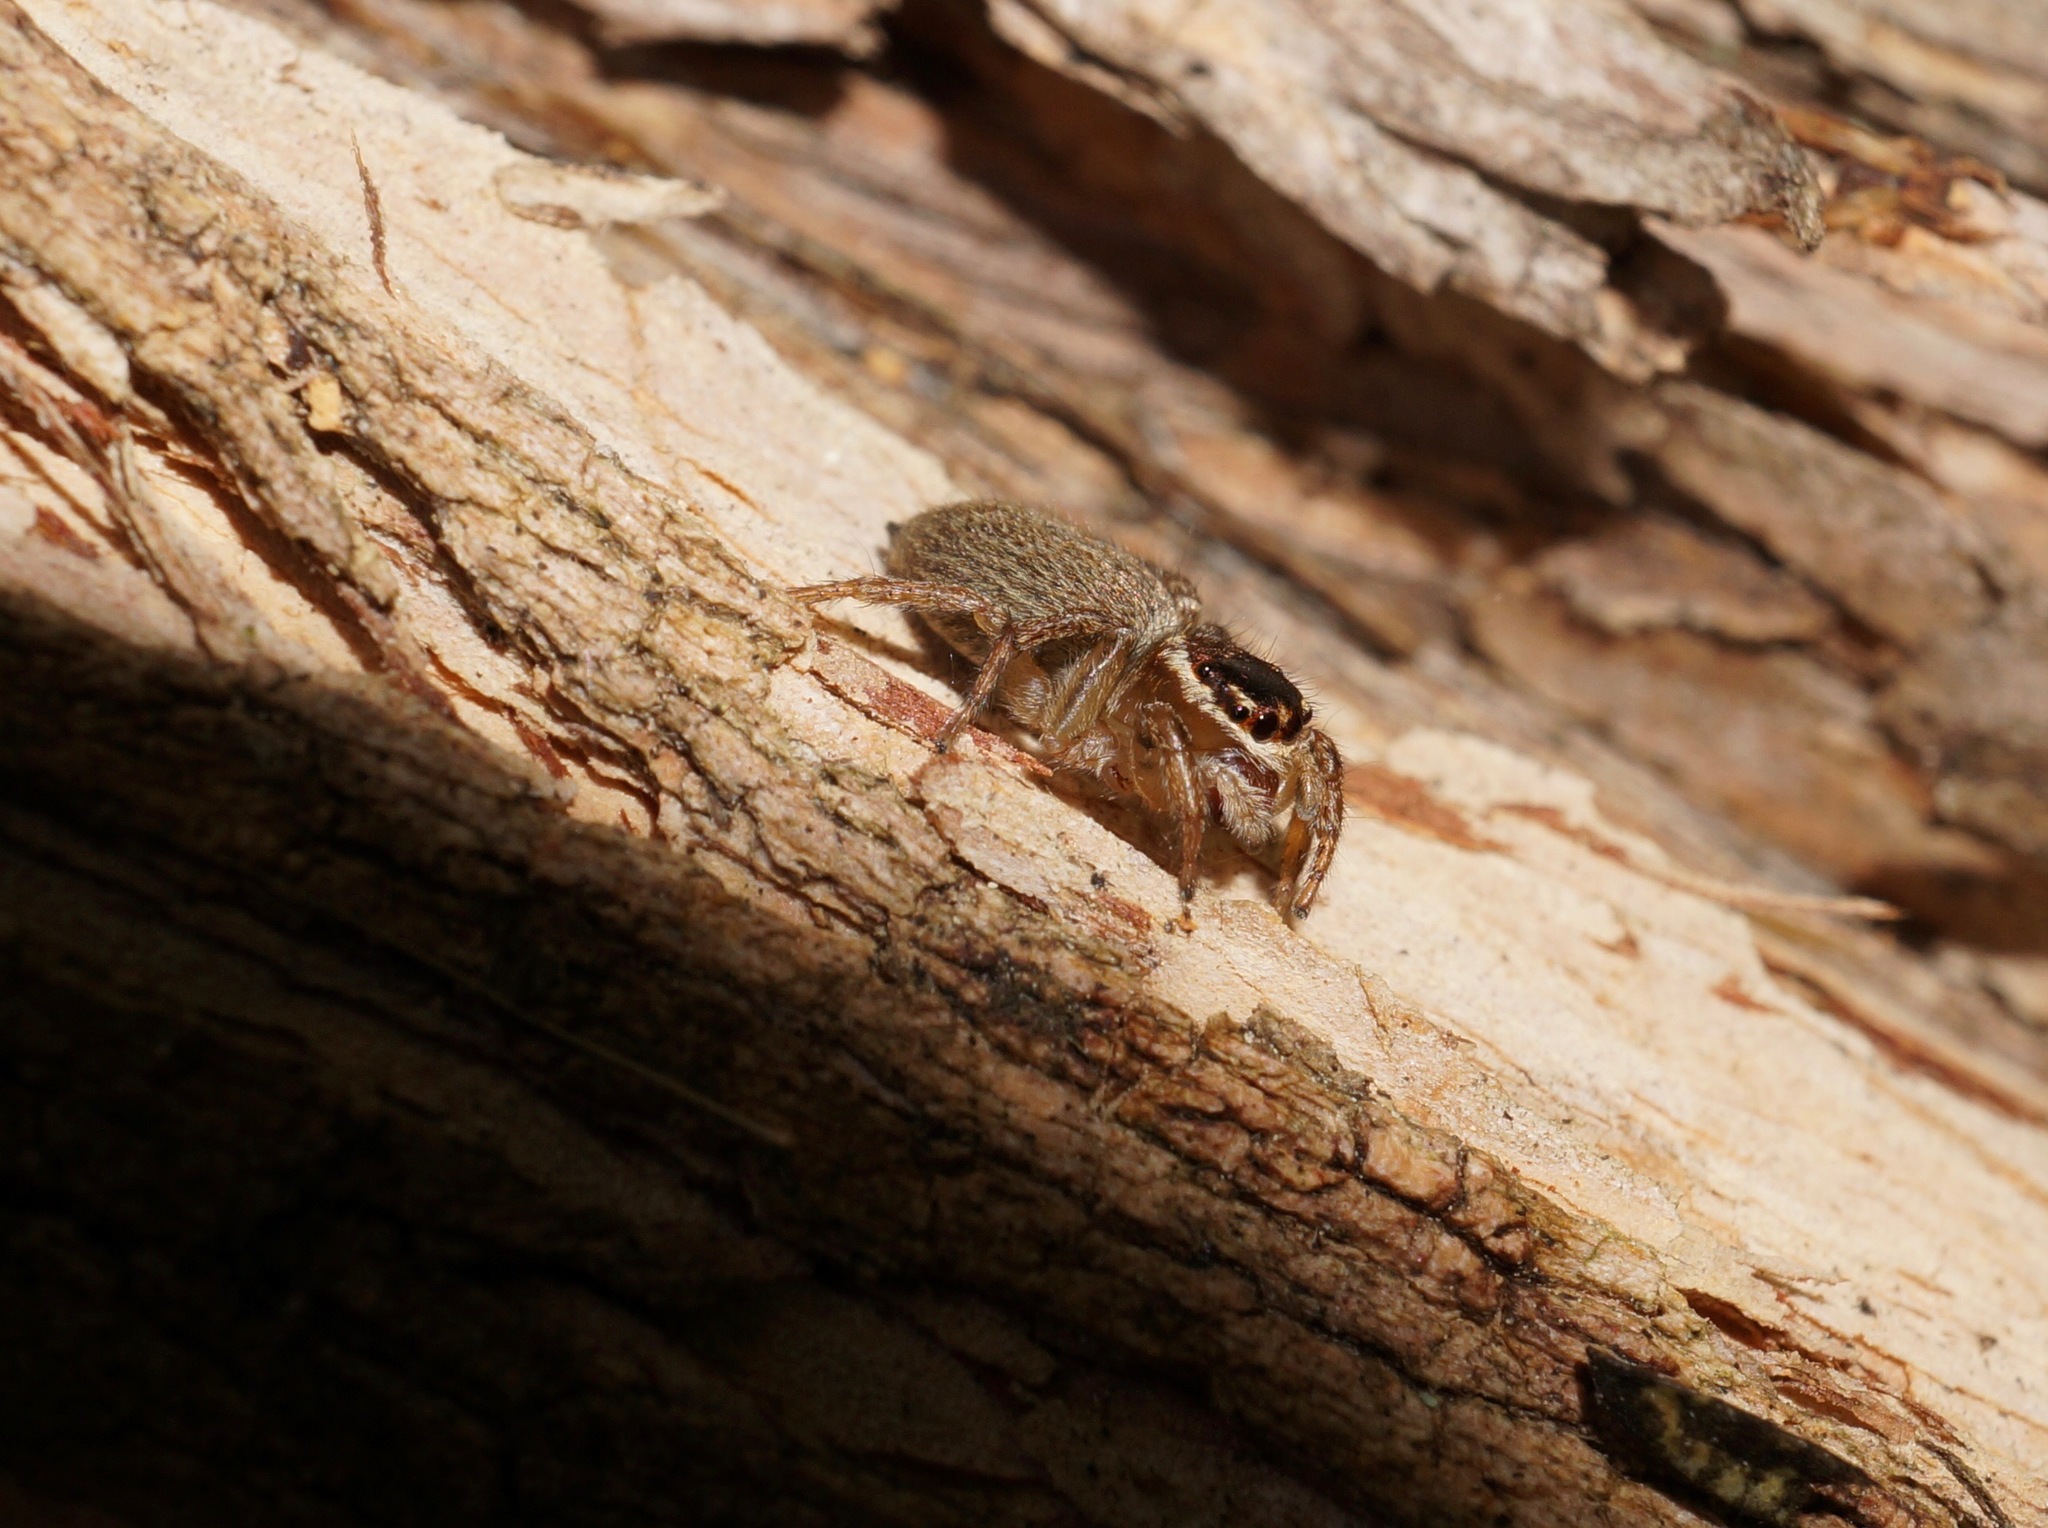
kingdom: Animalia
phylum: Arthropoda
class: Arachnida
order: Araneae
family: Salticidae
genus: Maratus
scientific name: Maratus griseus
